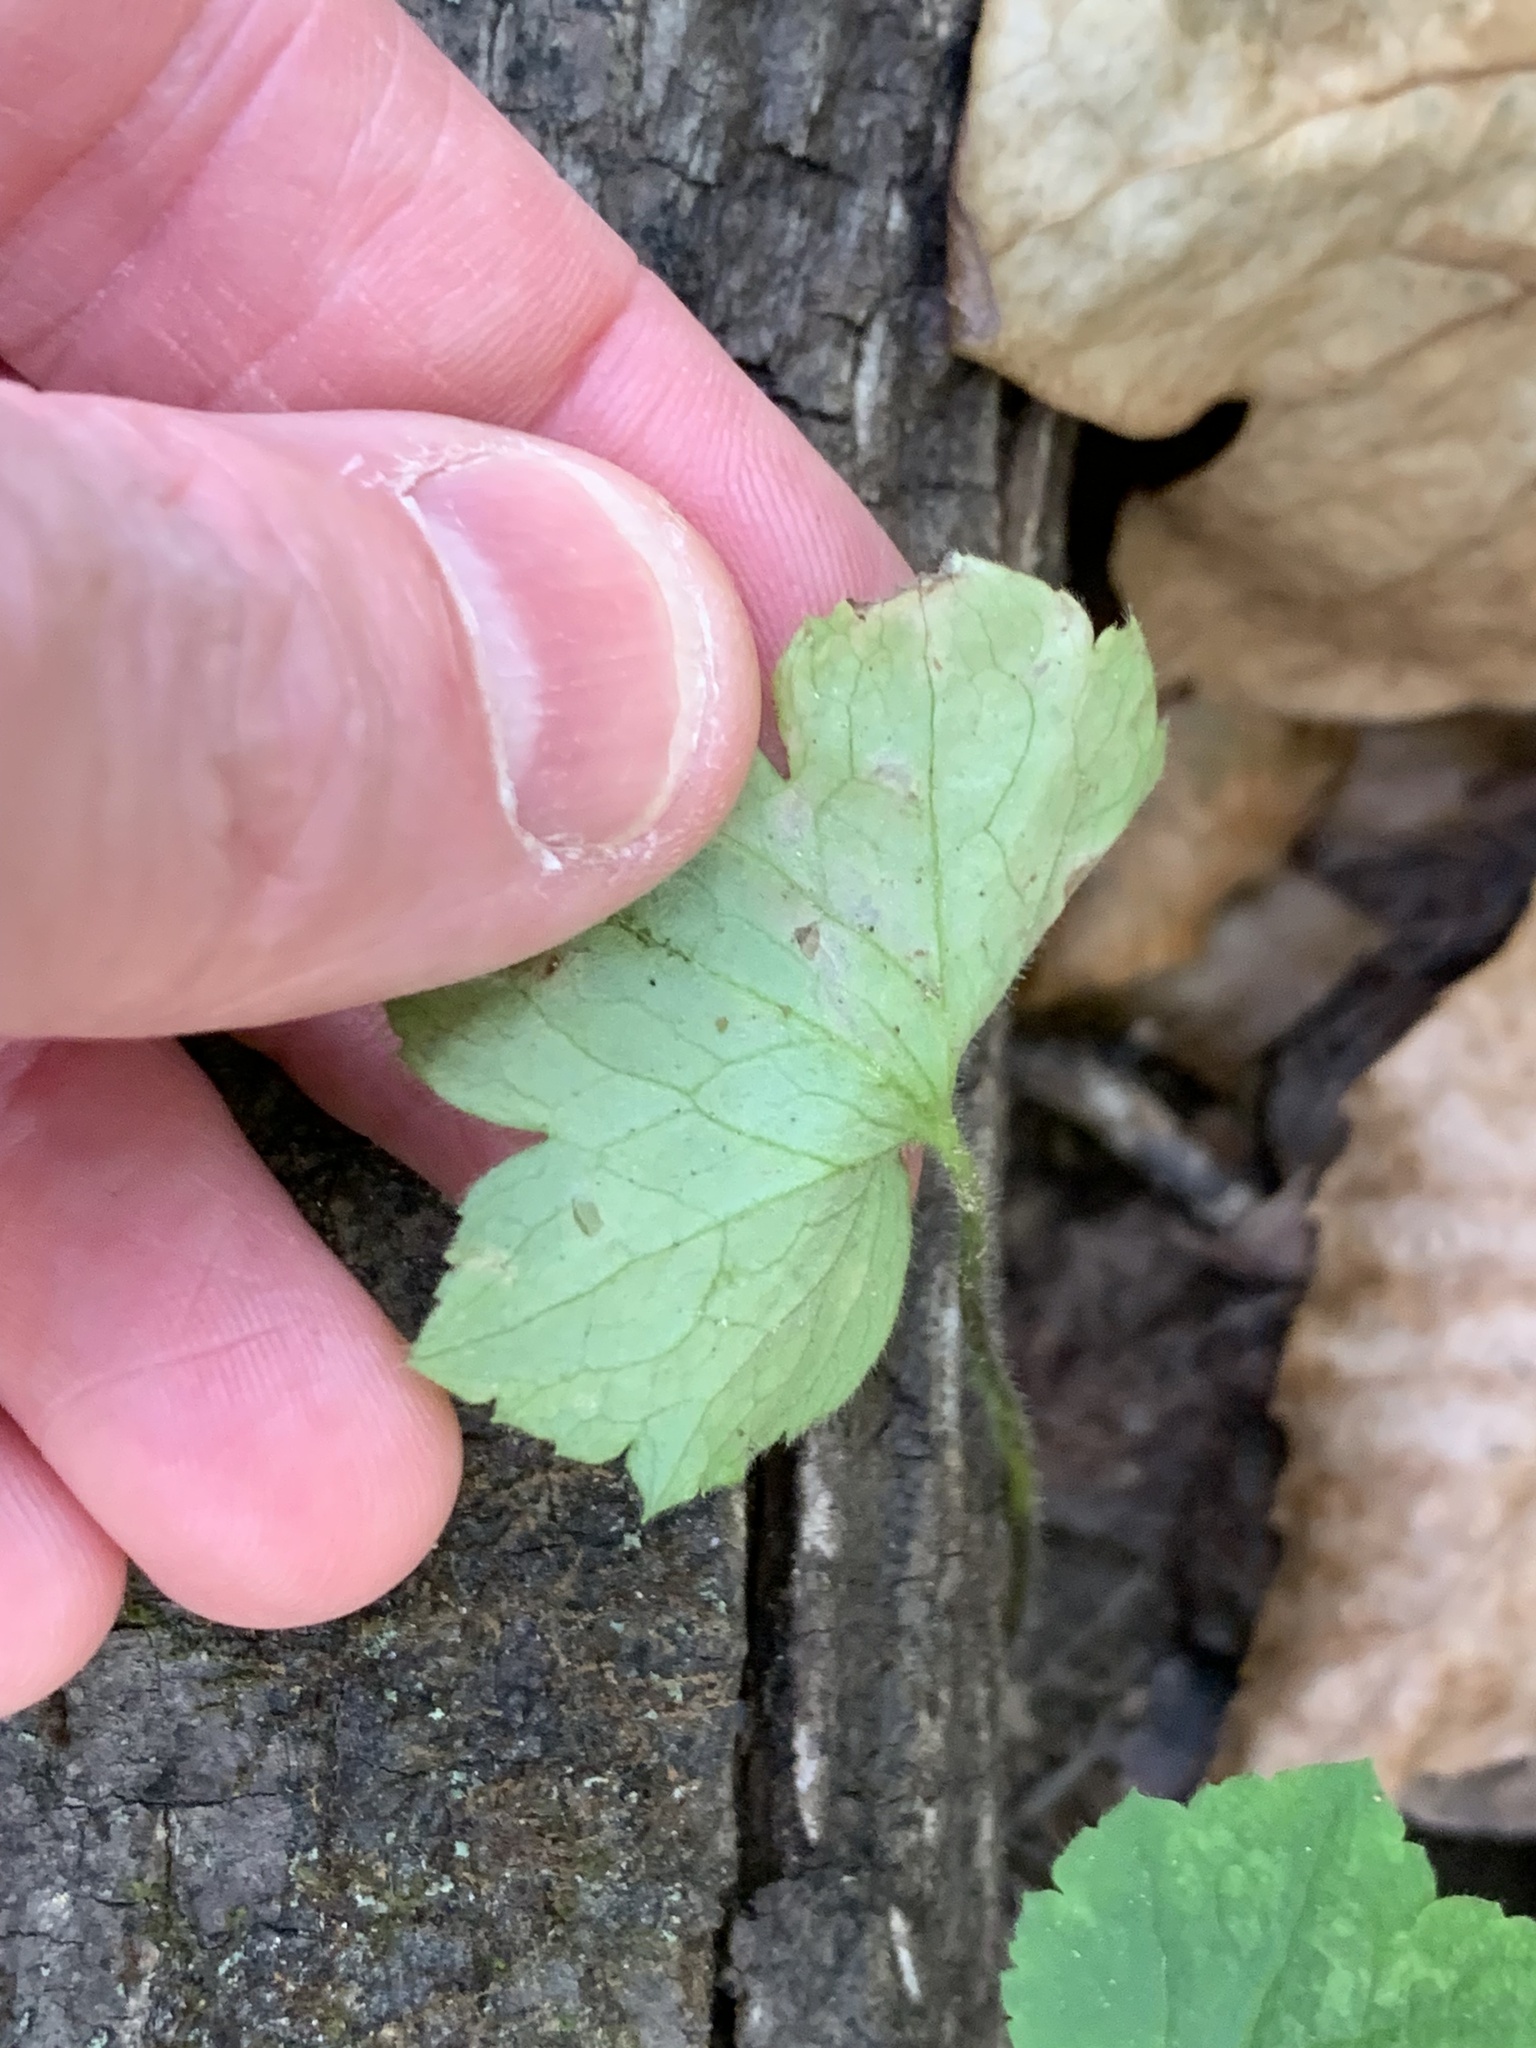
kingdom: Animalia
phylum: Arthropoda
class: Insecta
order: Diptera
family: Agromyzidae
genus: Phytomyza
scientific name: Phytomyza loewii
